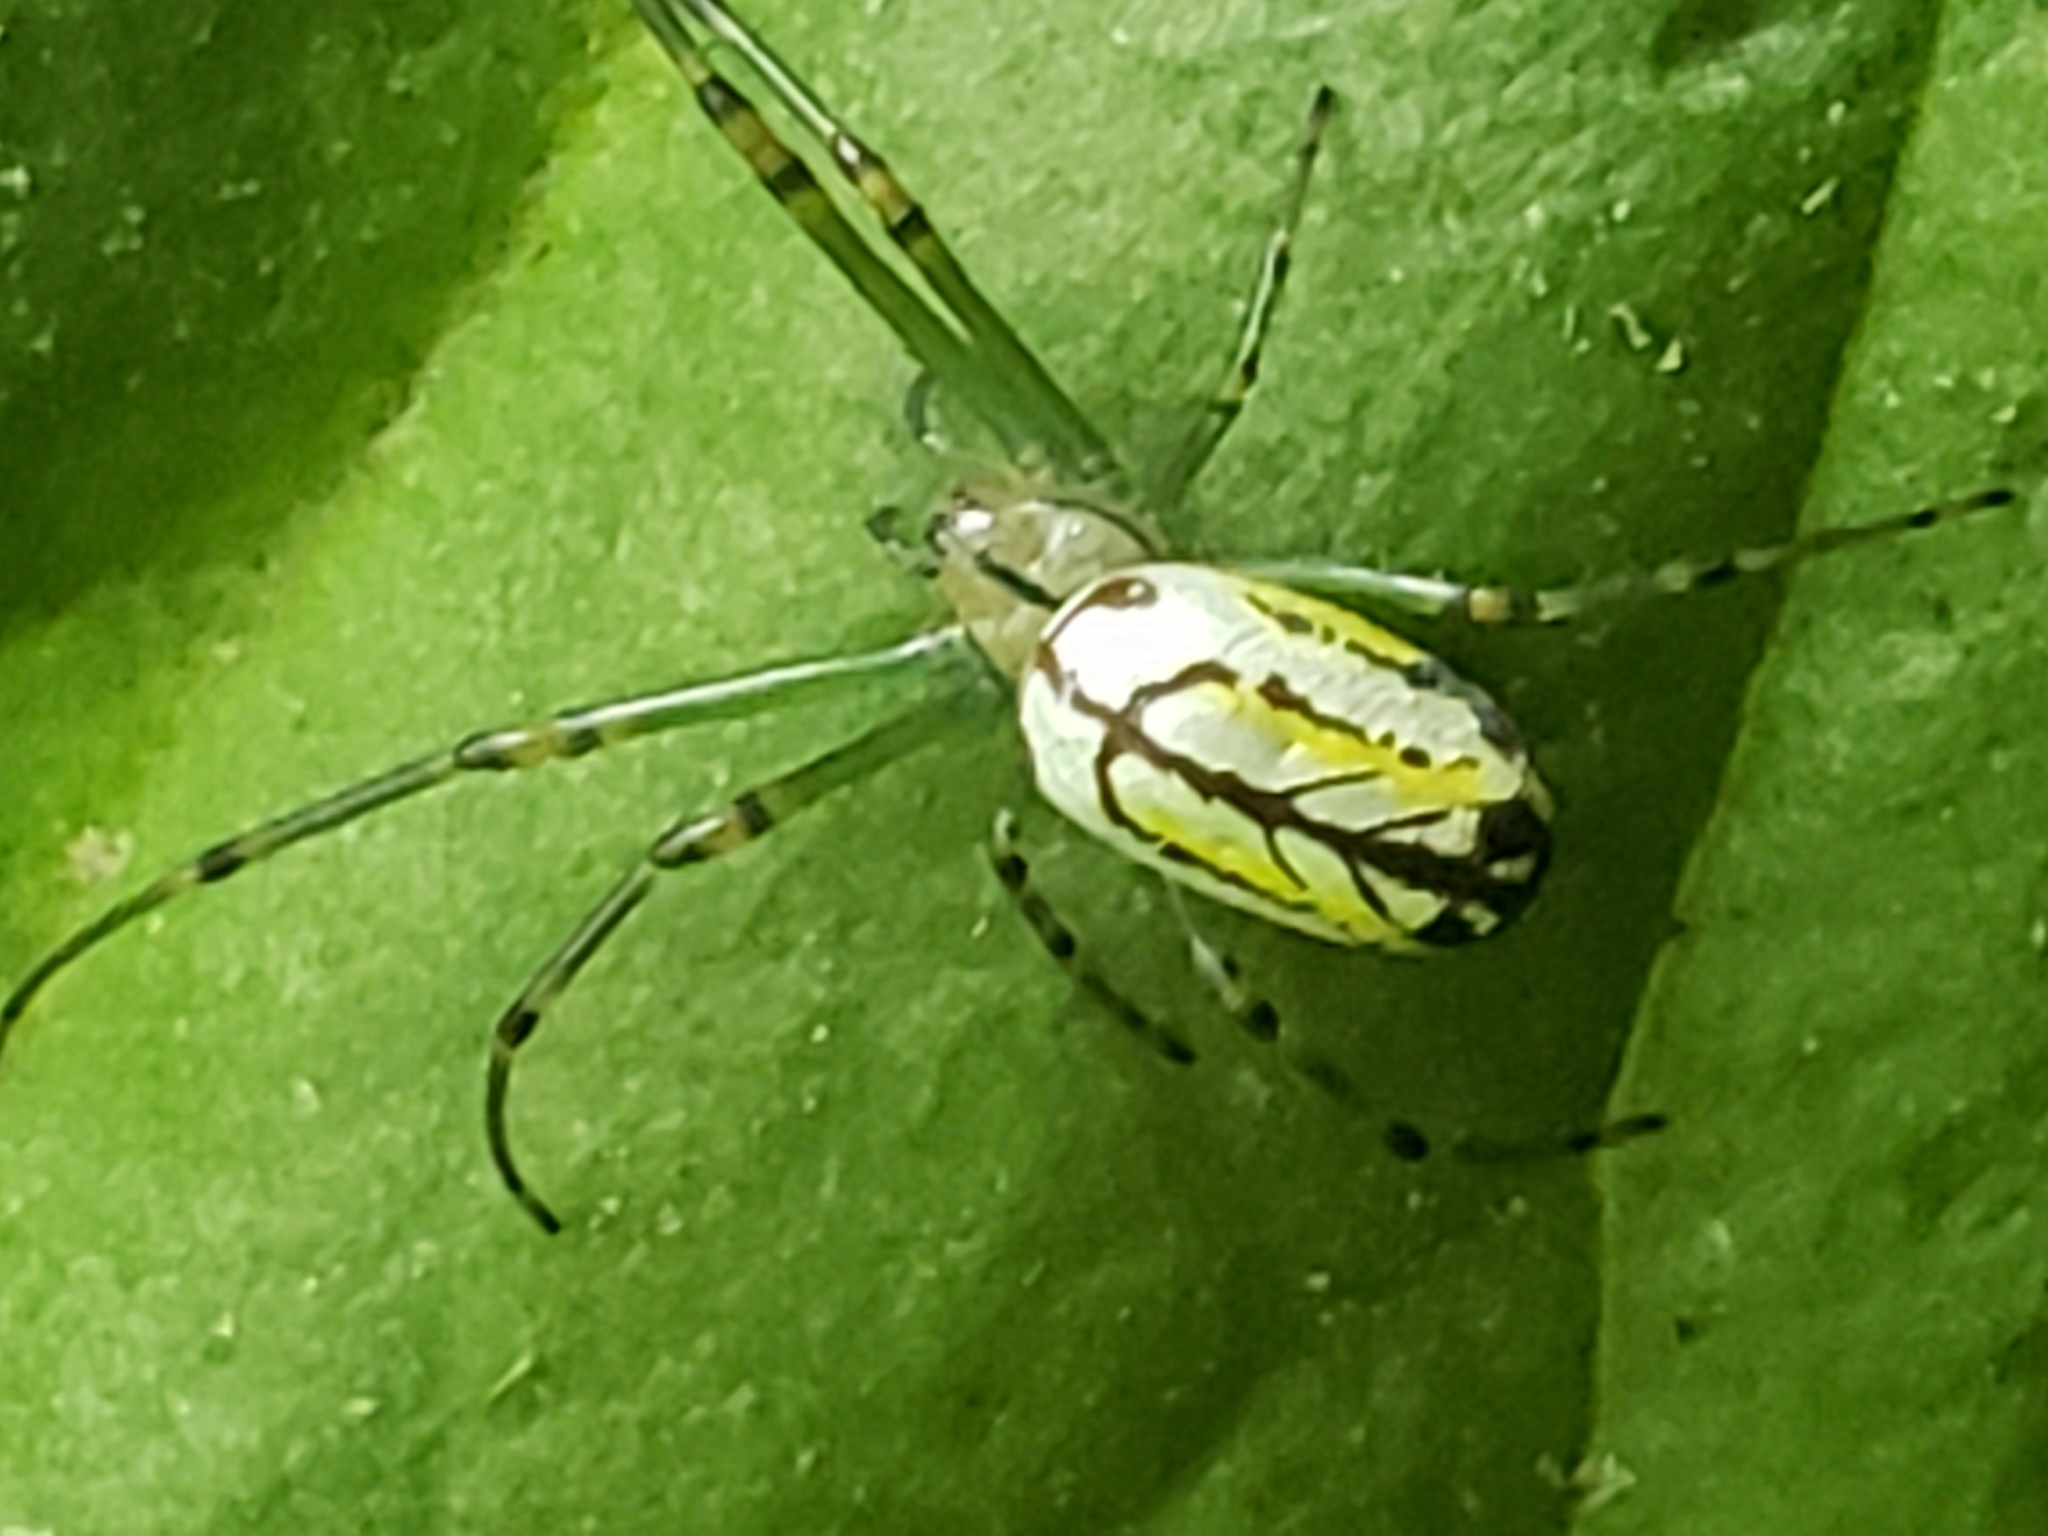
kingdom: Animalia
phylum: Arthropoda
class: Arachnida
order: Araneae
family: Tetragnathidae
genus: Leucauge
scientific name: Leucauge venusta
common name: Longjawed orb weavers
